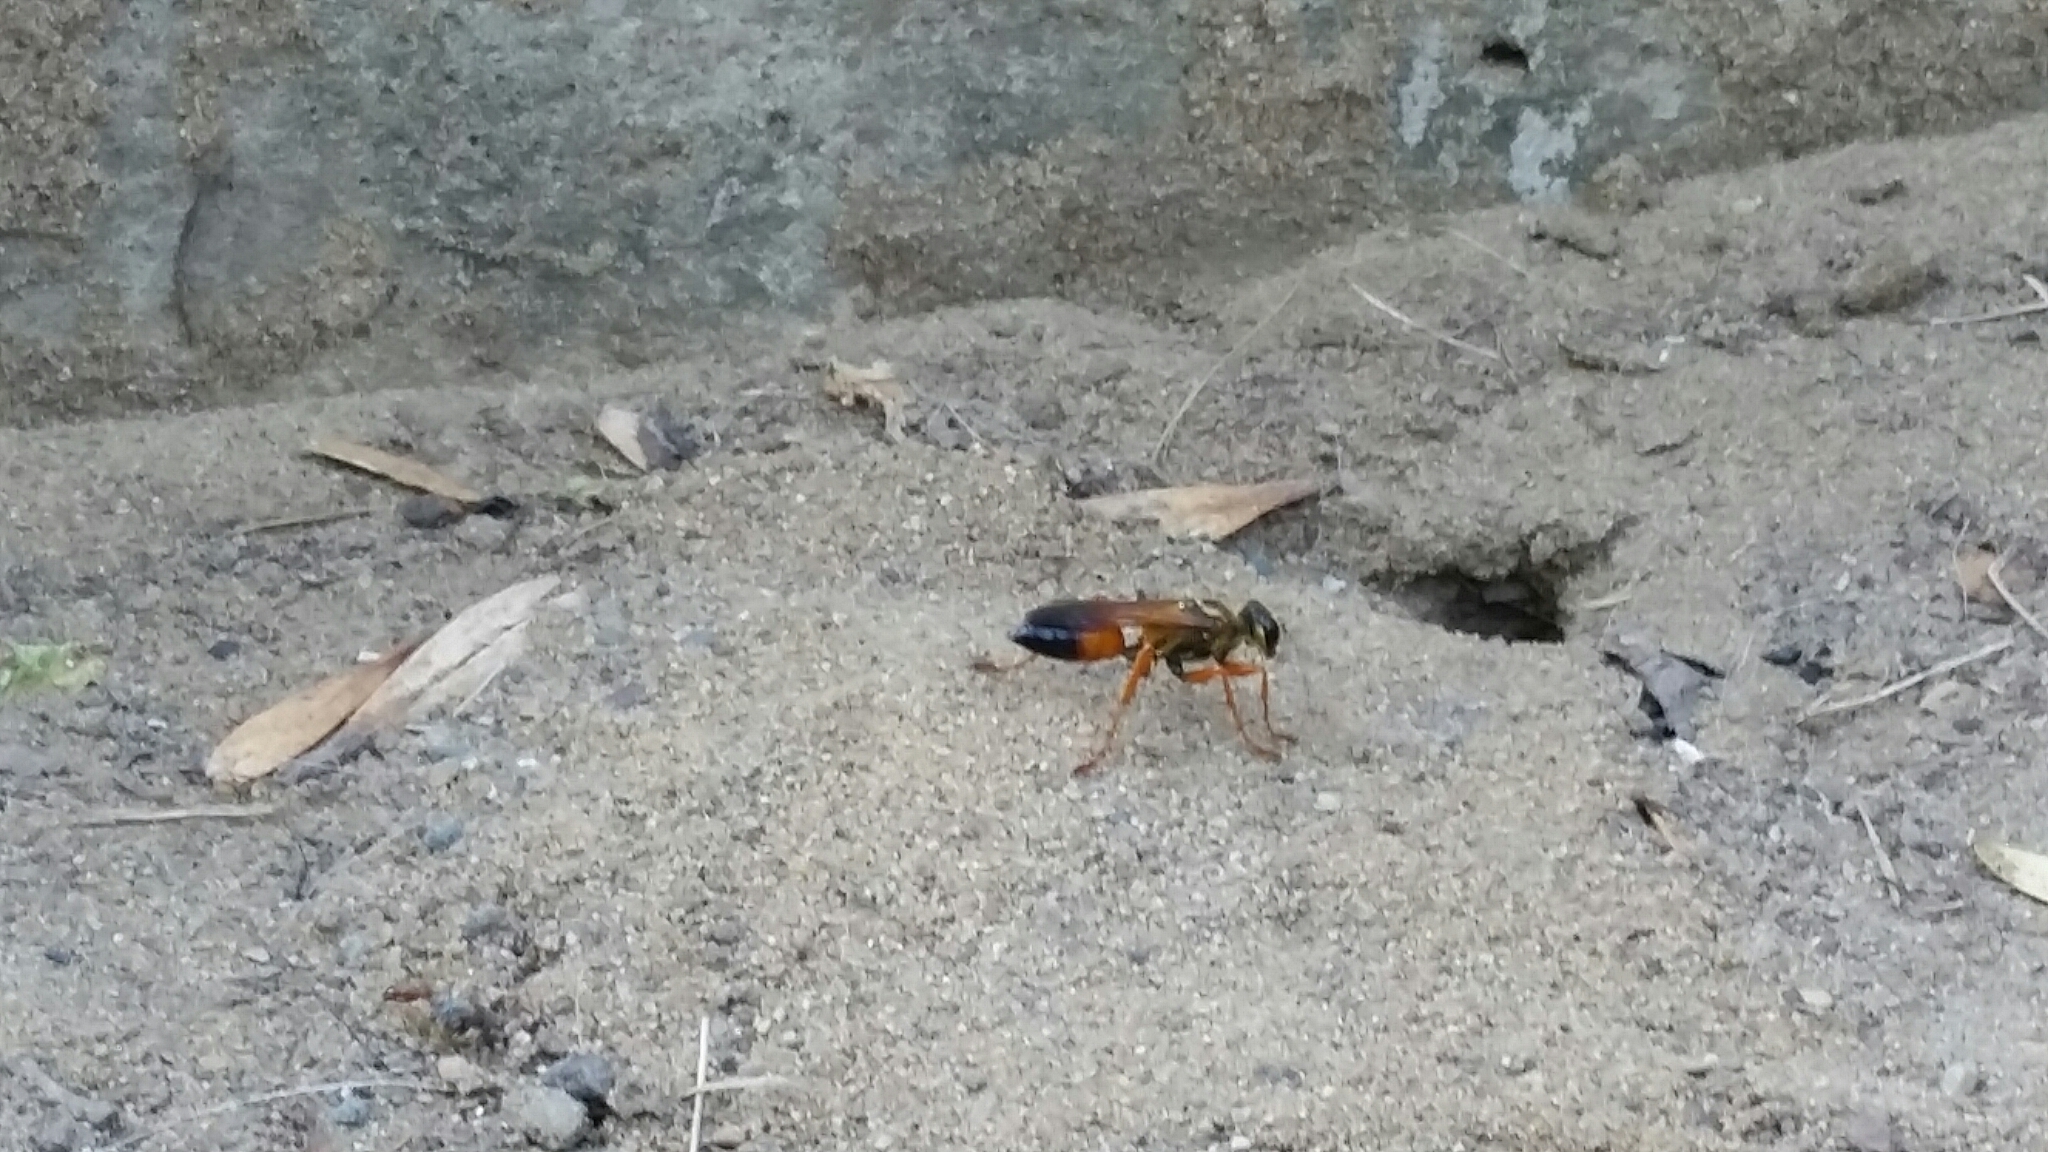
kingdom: Animalia
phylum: Arthropoda
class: Insecta
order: Hymenoptera
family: Sphecidae
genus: Sphex
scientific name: Sphex ichneumoneus
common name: Great golden digger wasp
